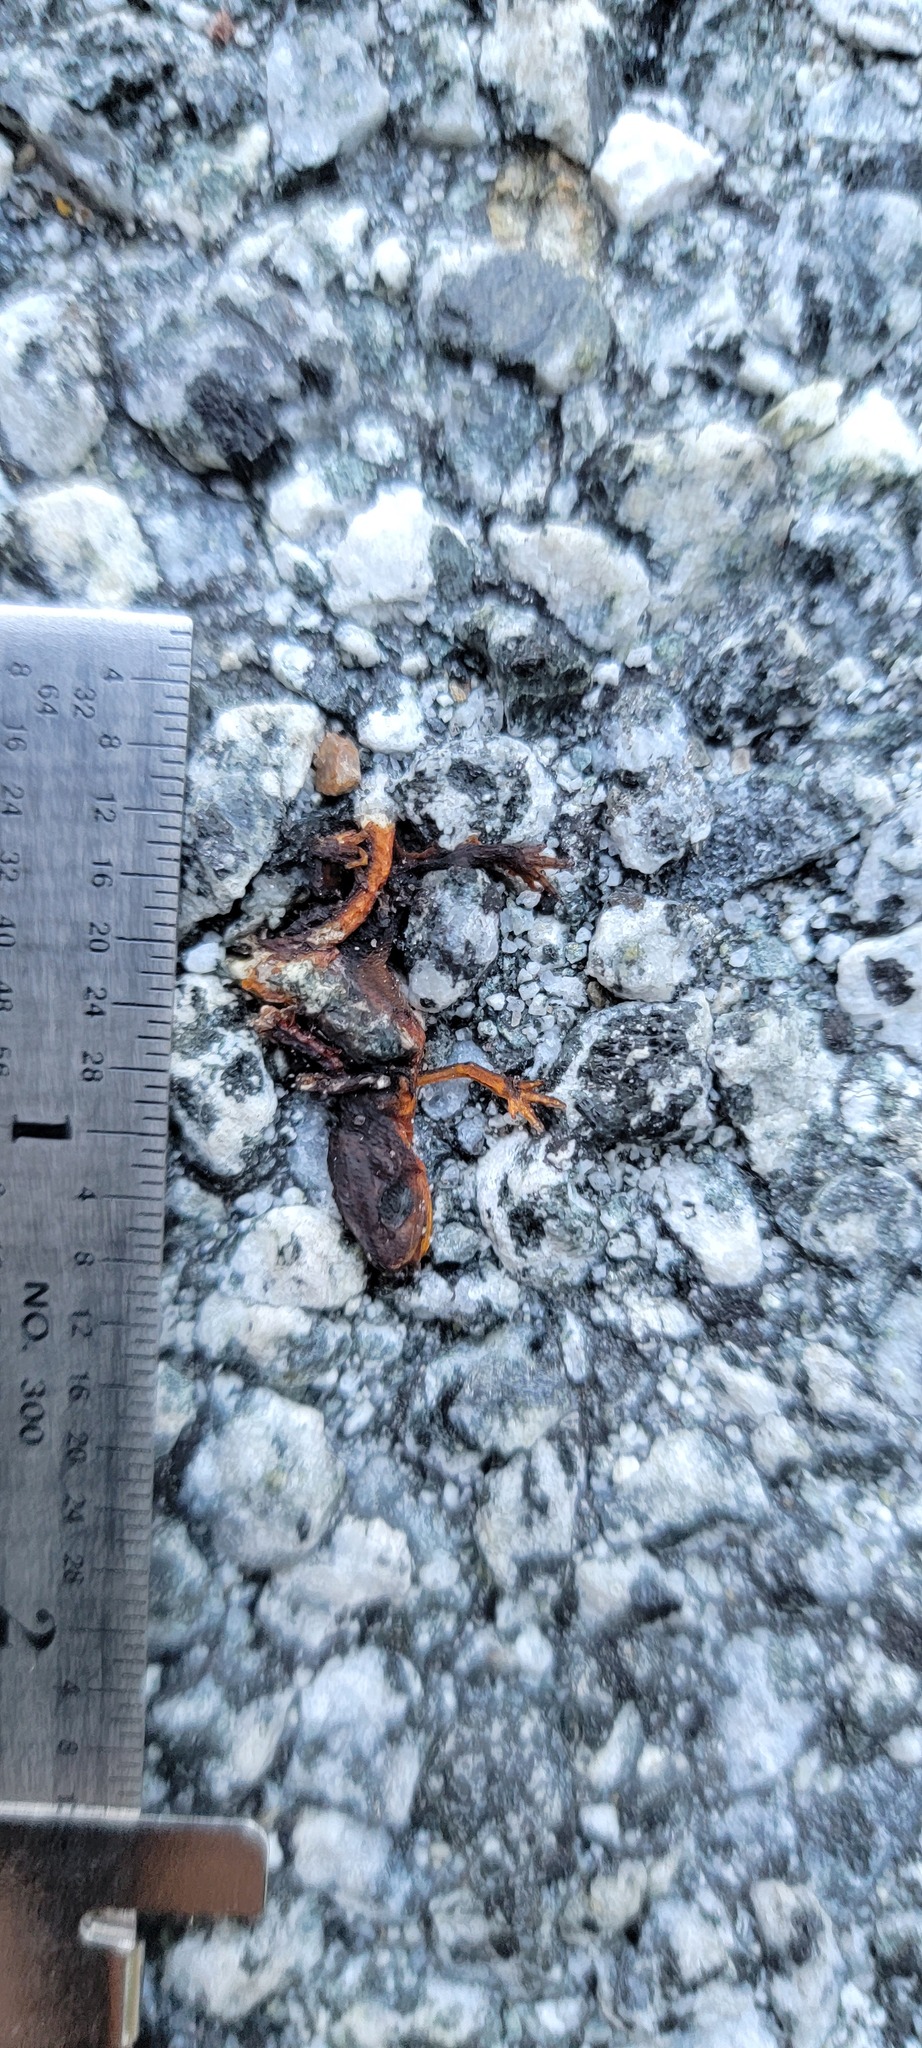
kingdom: Animalia
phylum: Chordata
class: Amphibia
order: Caudata
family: Salamandridae
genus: Taricha
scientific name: Taricha
